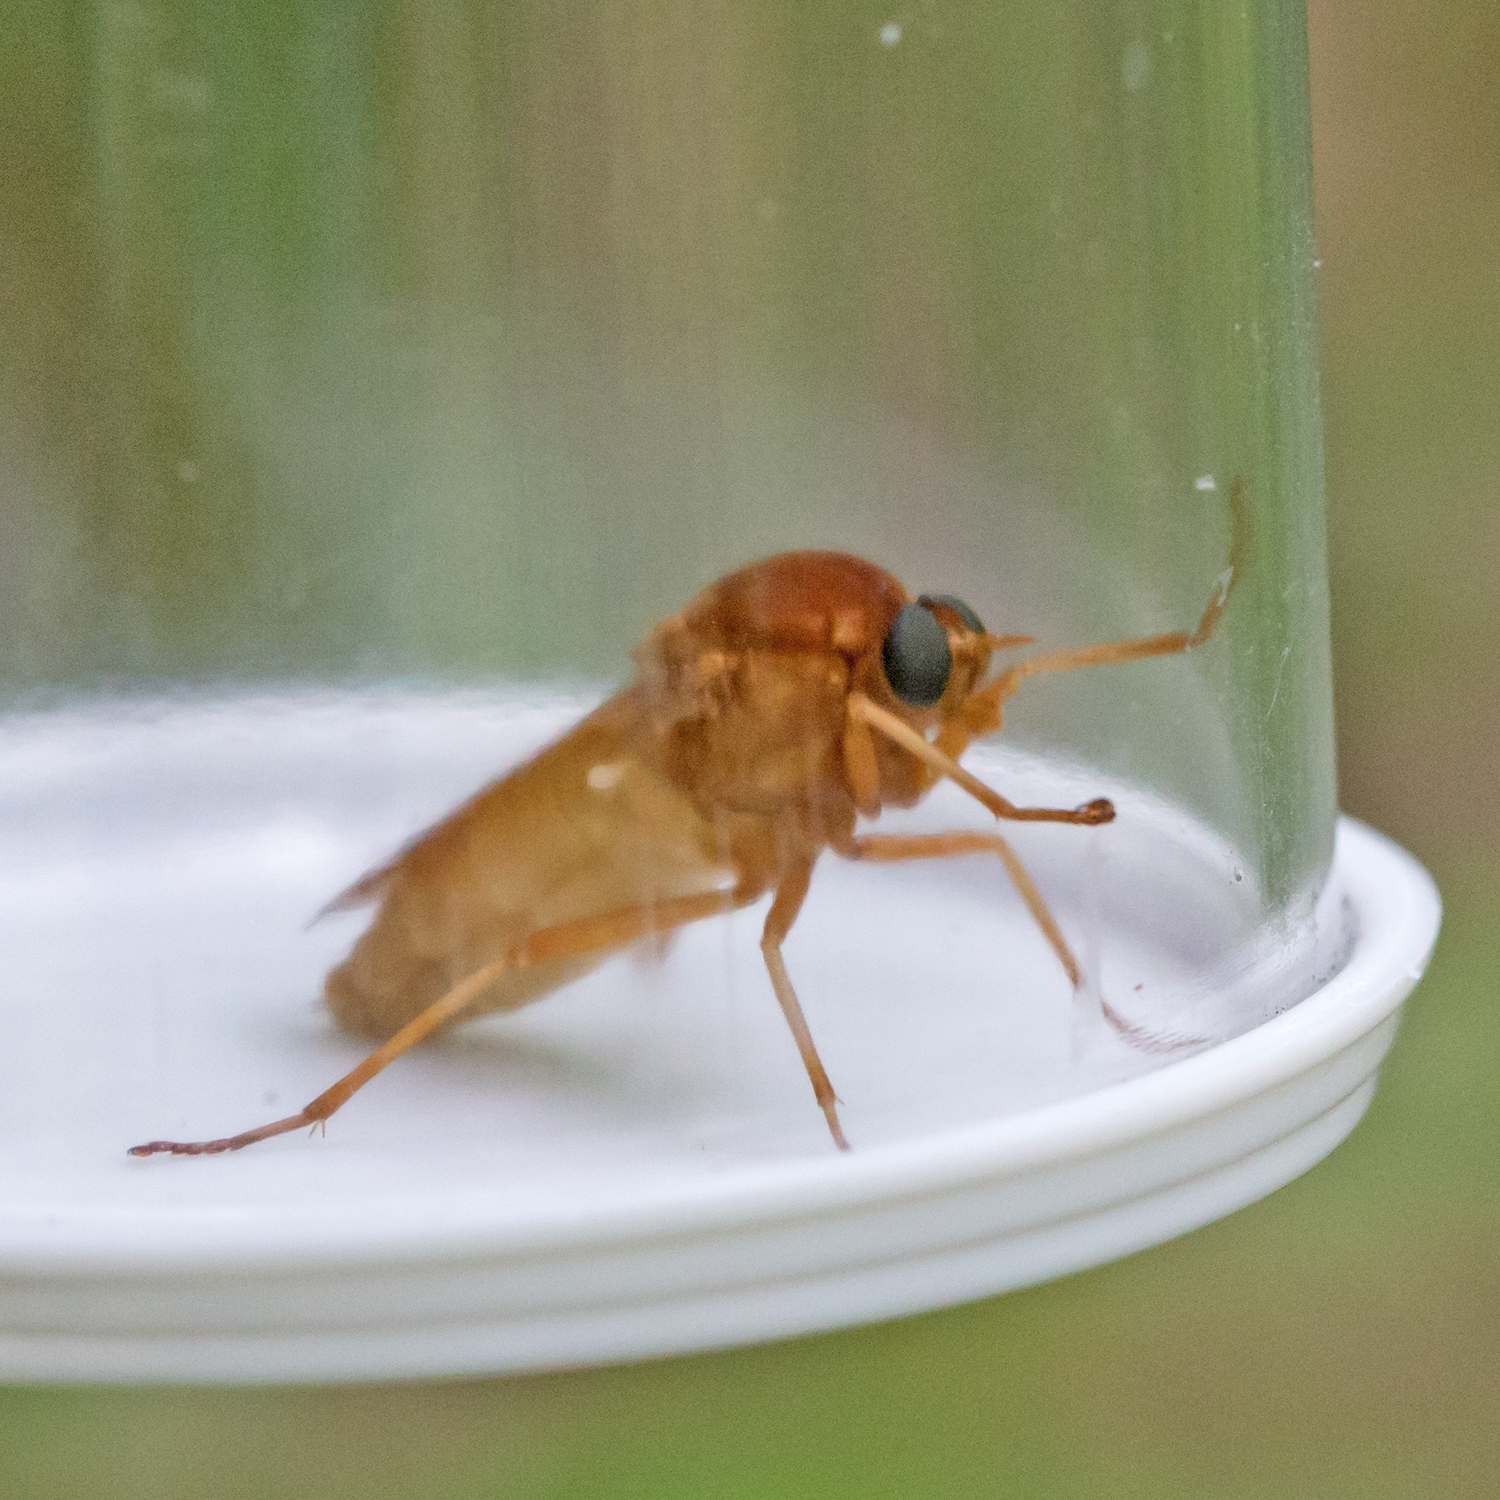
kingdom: Animalia
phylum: Arthropoda
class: Insecta
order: Diptera
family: Xylophagidae
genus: Coenomyia
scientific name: Coenomyia ferruginea
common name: Stink fly
